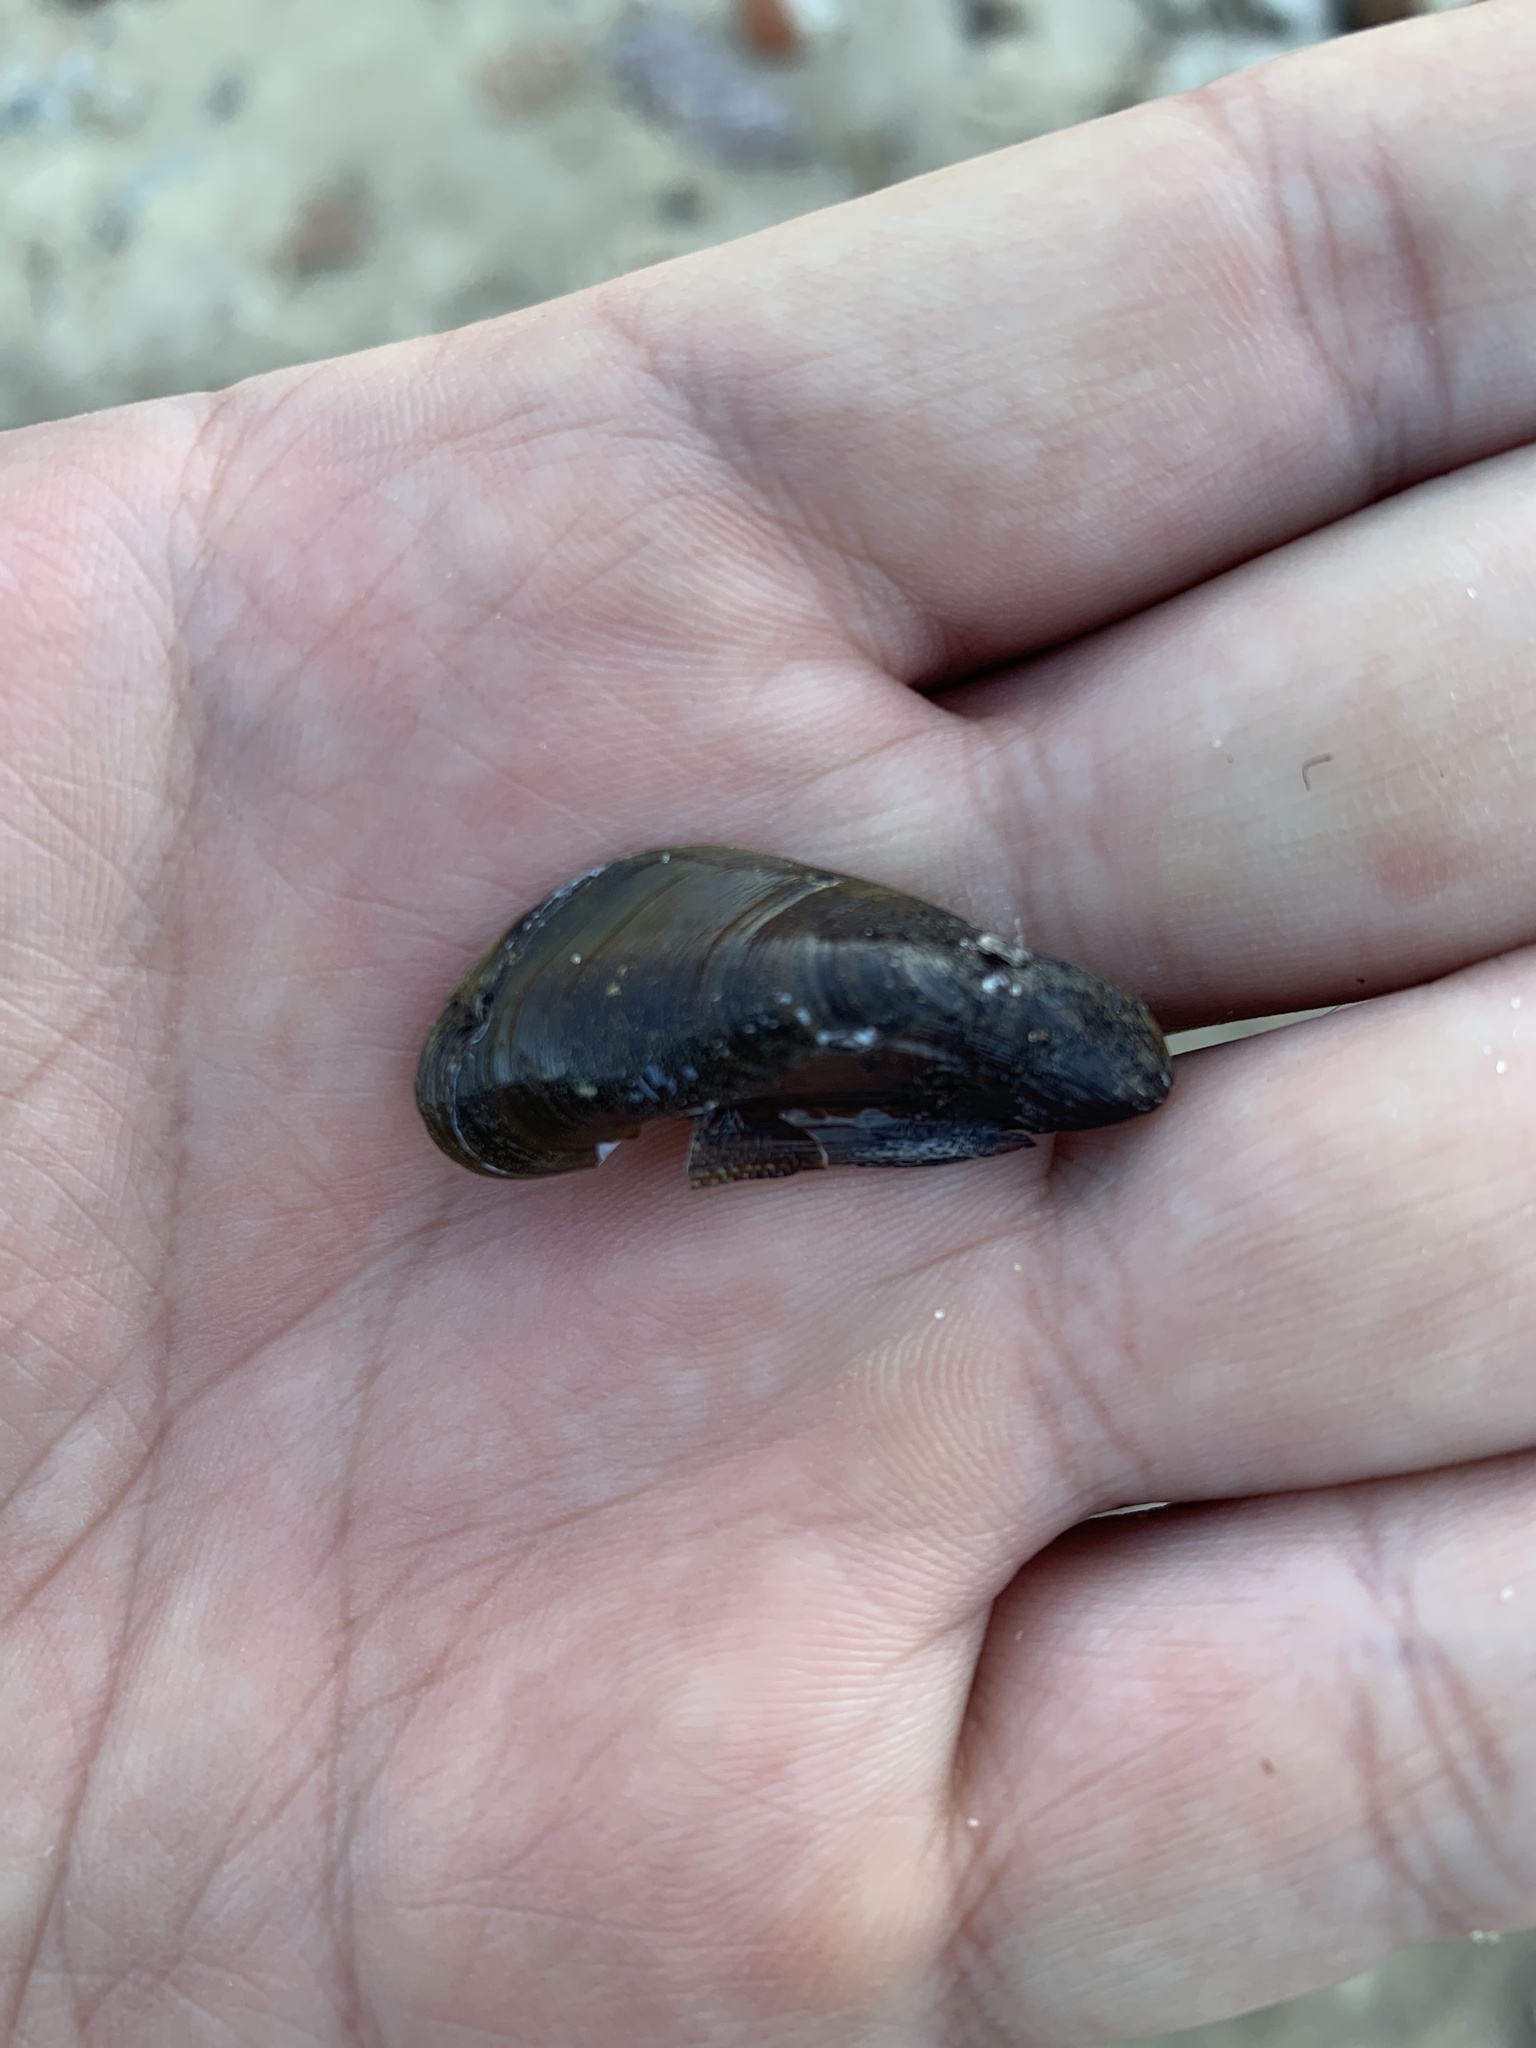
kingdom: Animalia
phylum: Mollusca
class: Bivalvia
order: Mytilida
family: Mytilidae
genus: Mytella
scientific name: Mytella strigata
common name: Charru mussel
